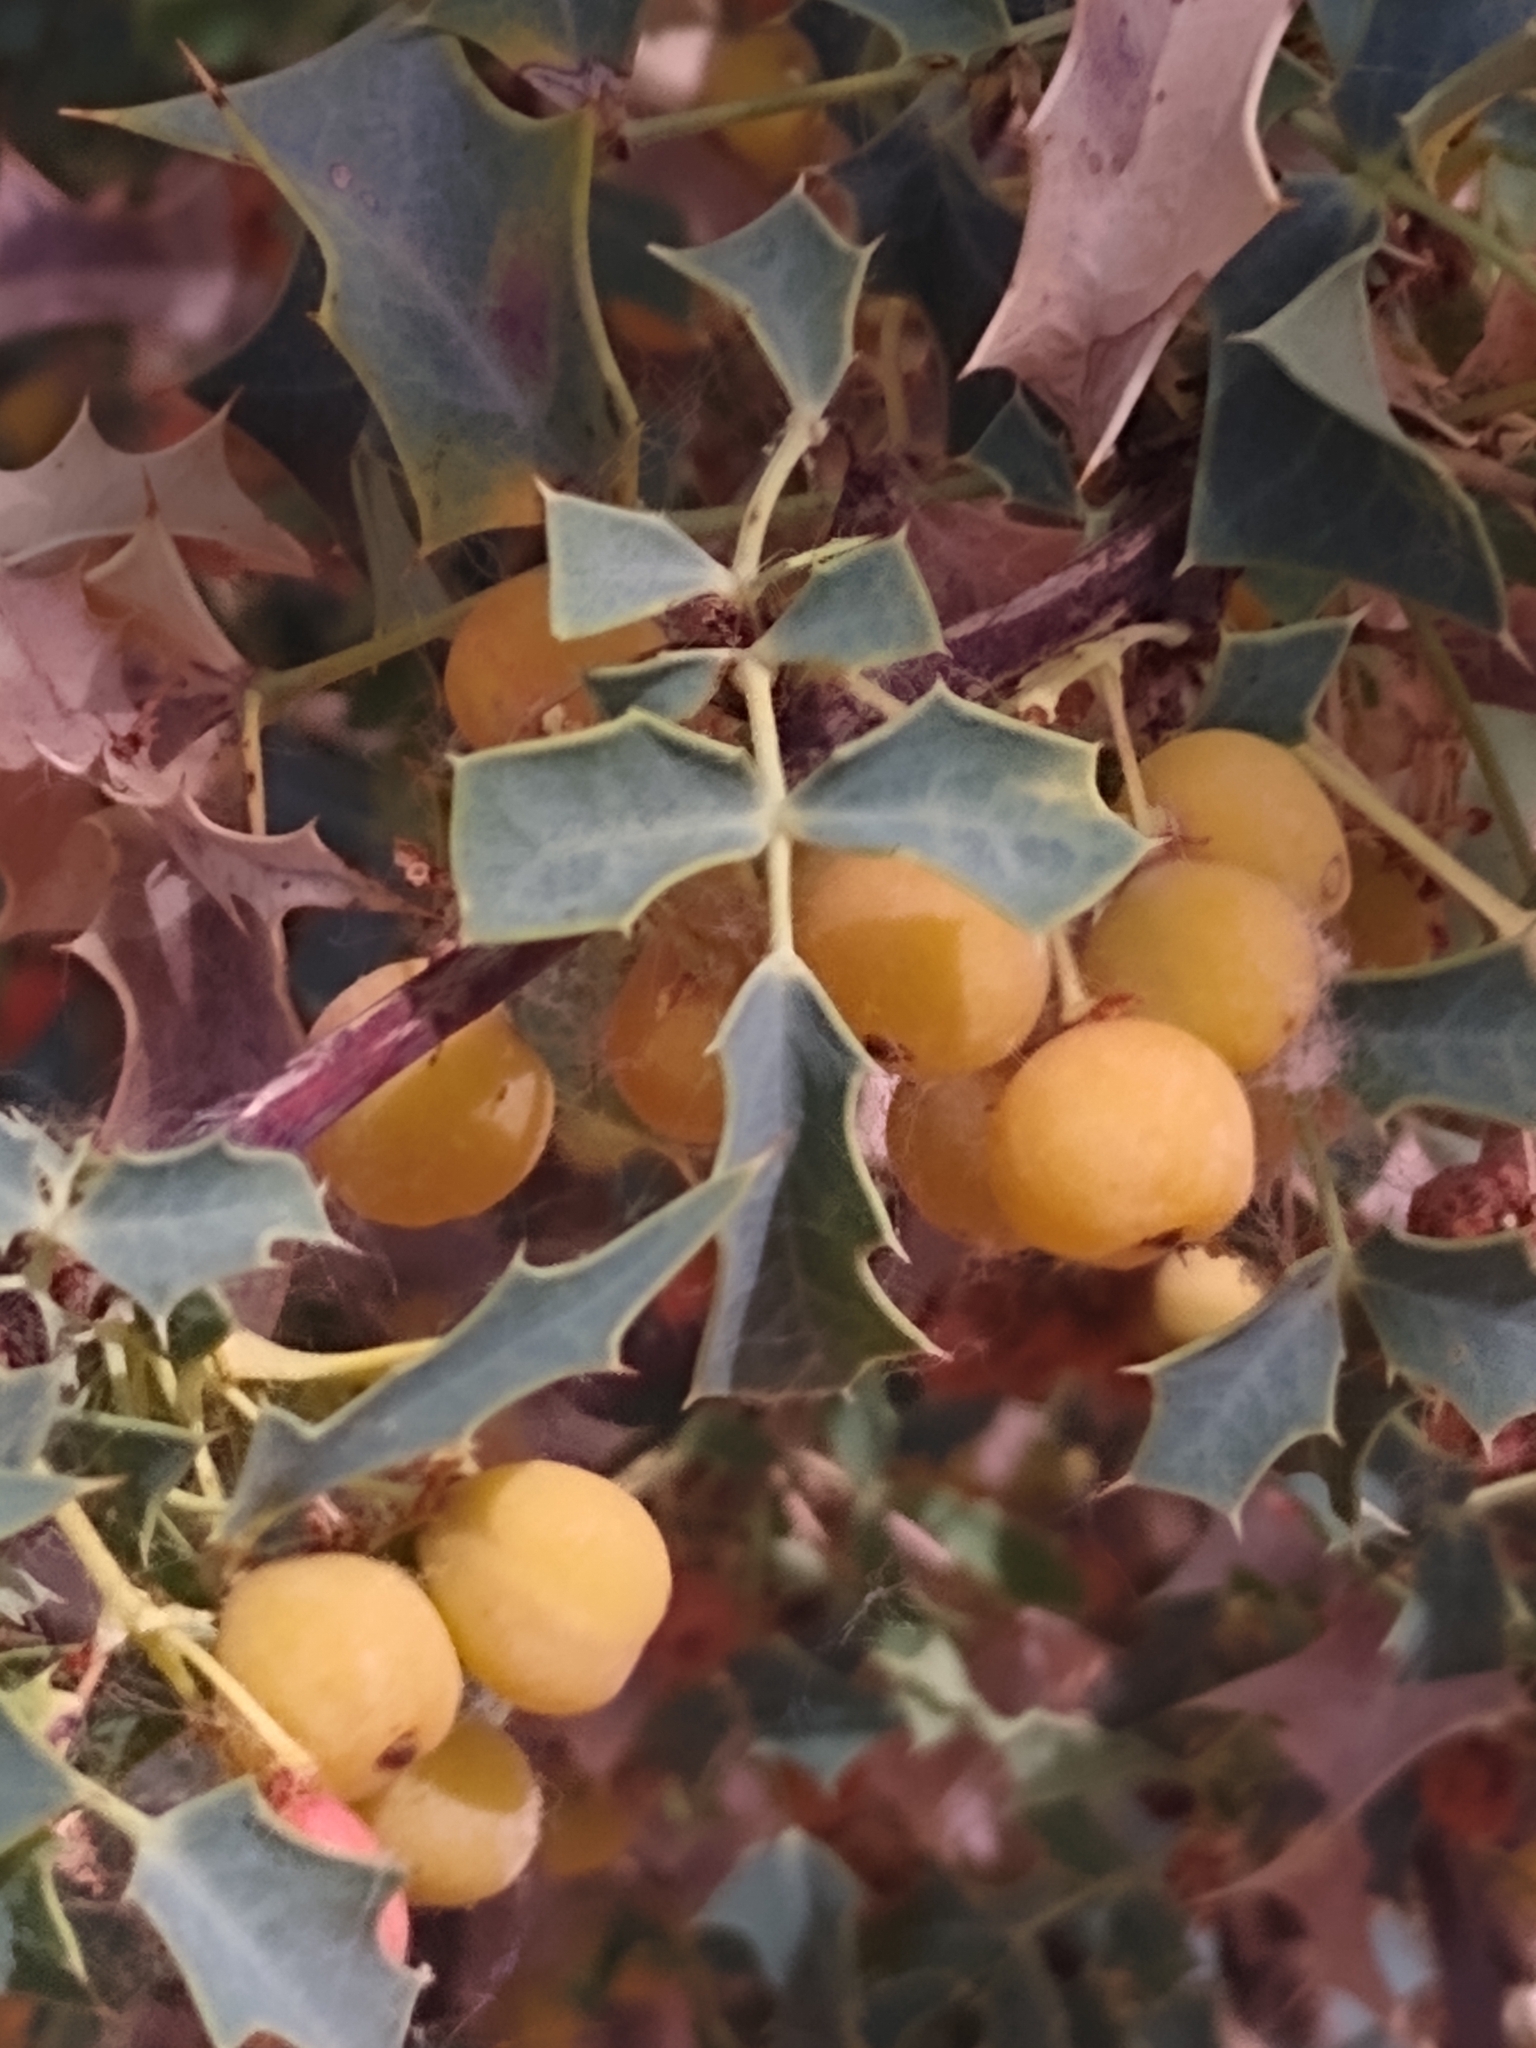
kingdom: Plantae
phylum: Tracheophyta
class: Magnoliopsida
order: Ranunculales
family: Berberidaceae
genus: Alloberberis
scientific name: Alloberberis fremontii
